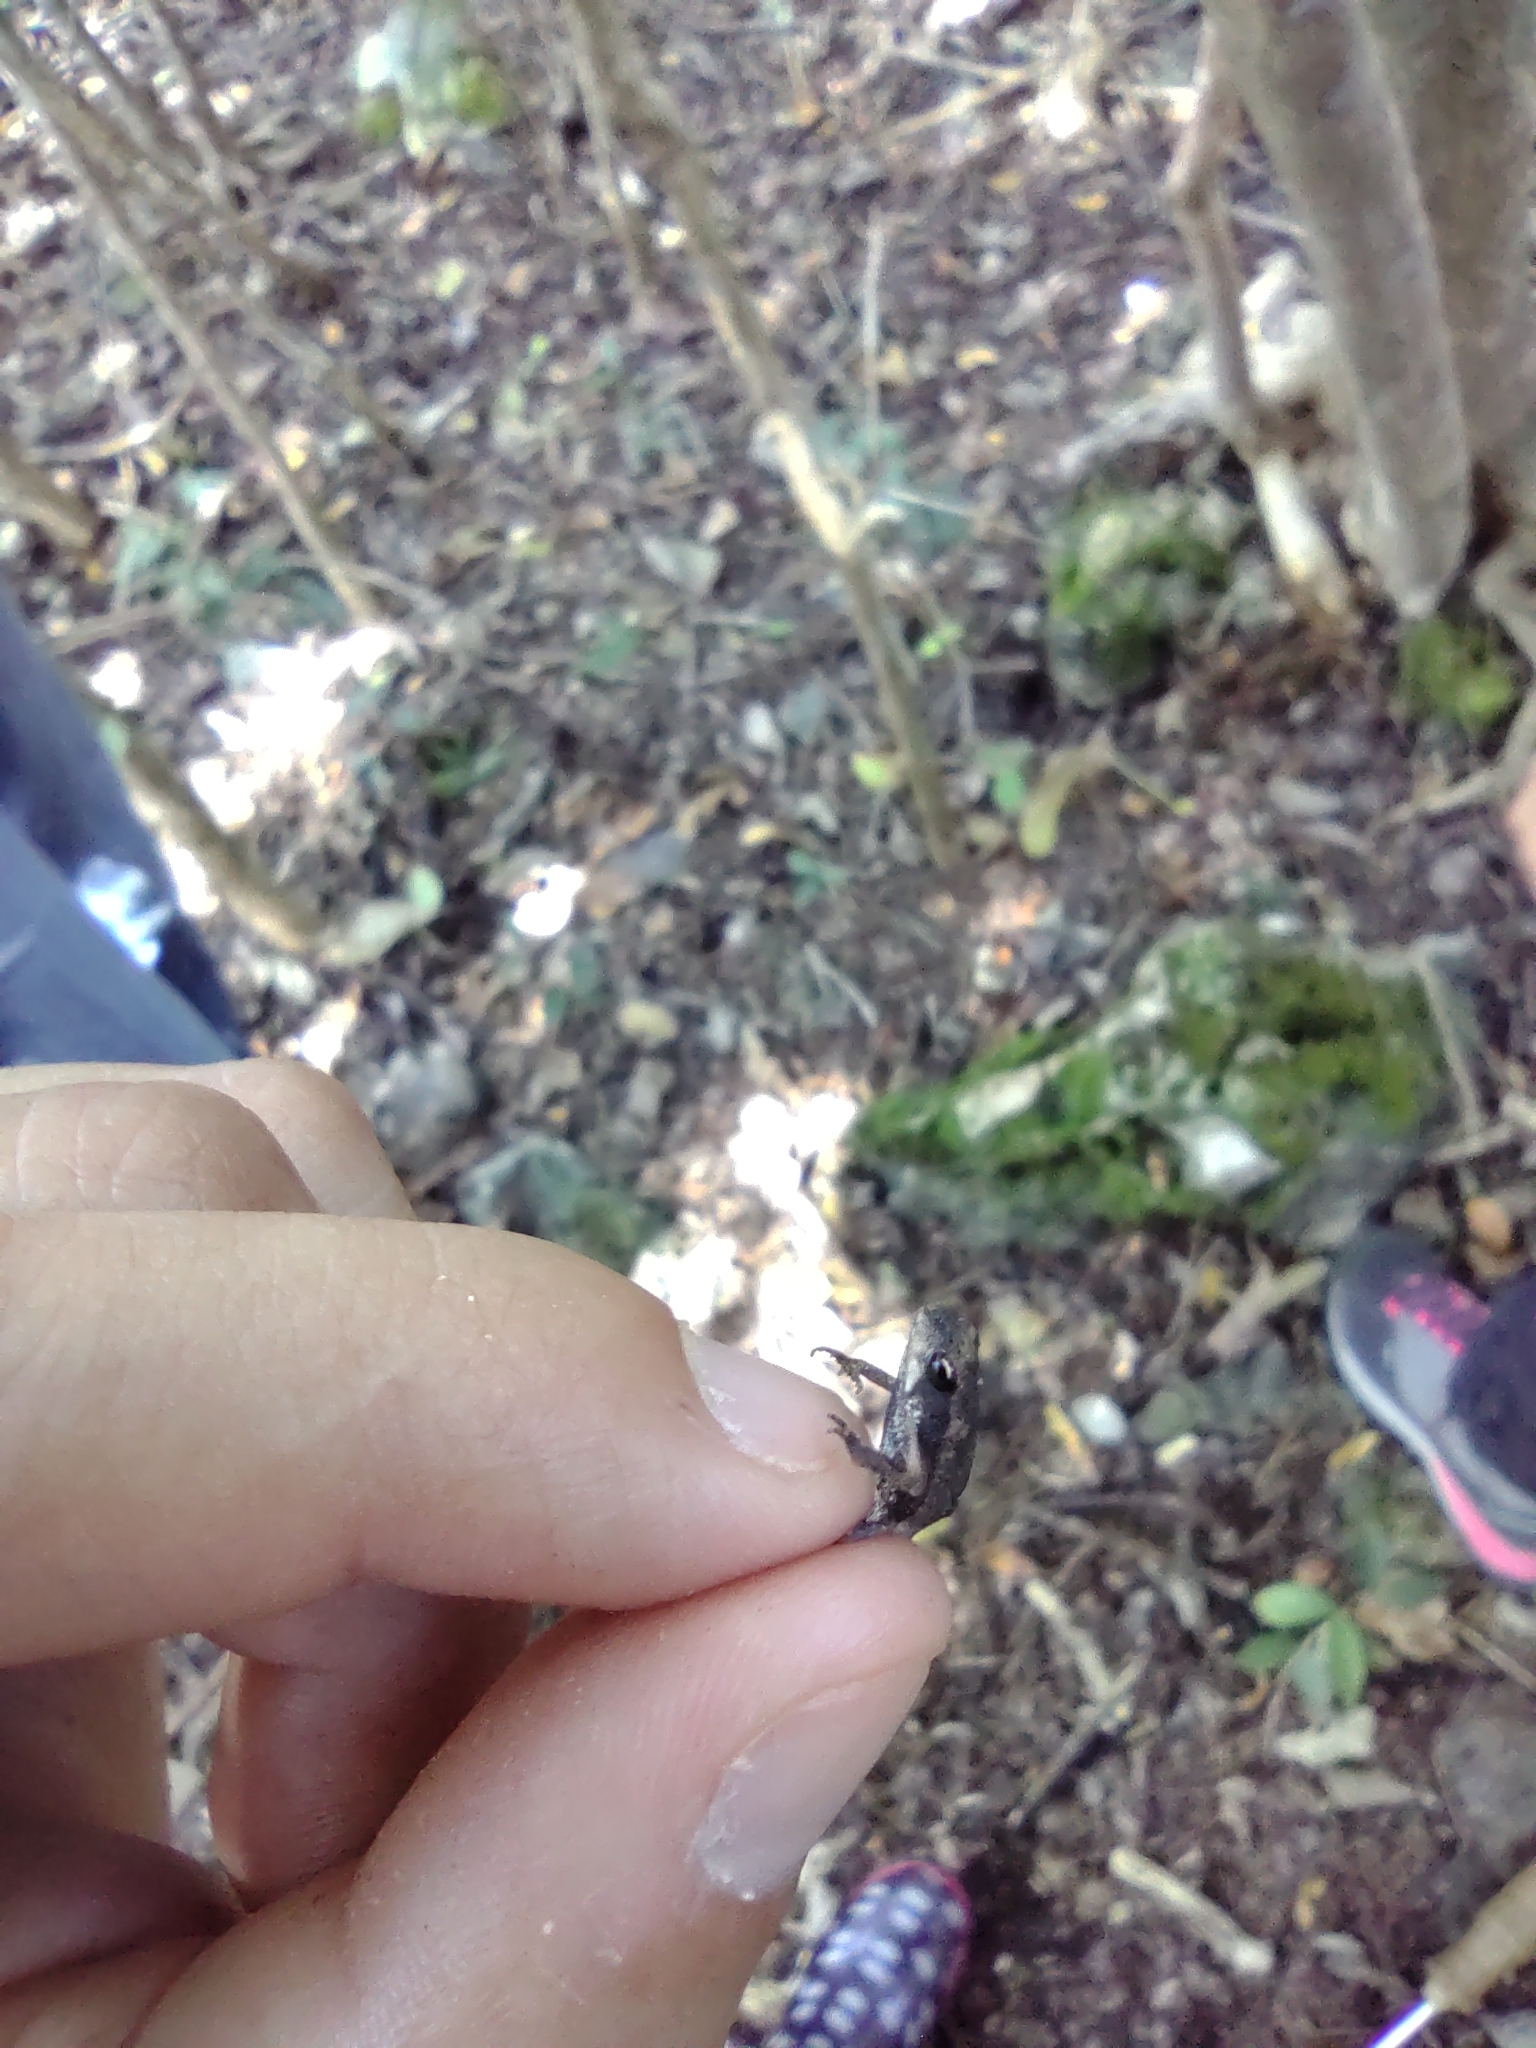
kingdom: Animalia
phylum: Chordata
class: Amphibia
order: Anura
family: Bufonidae
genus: Incilius
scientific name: Incilius valliceps
